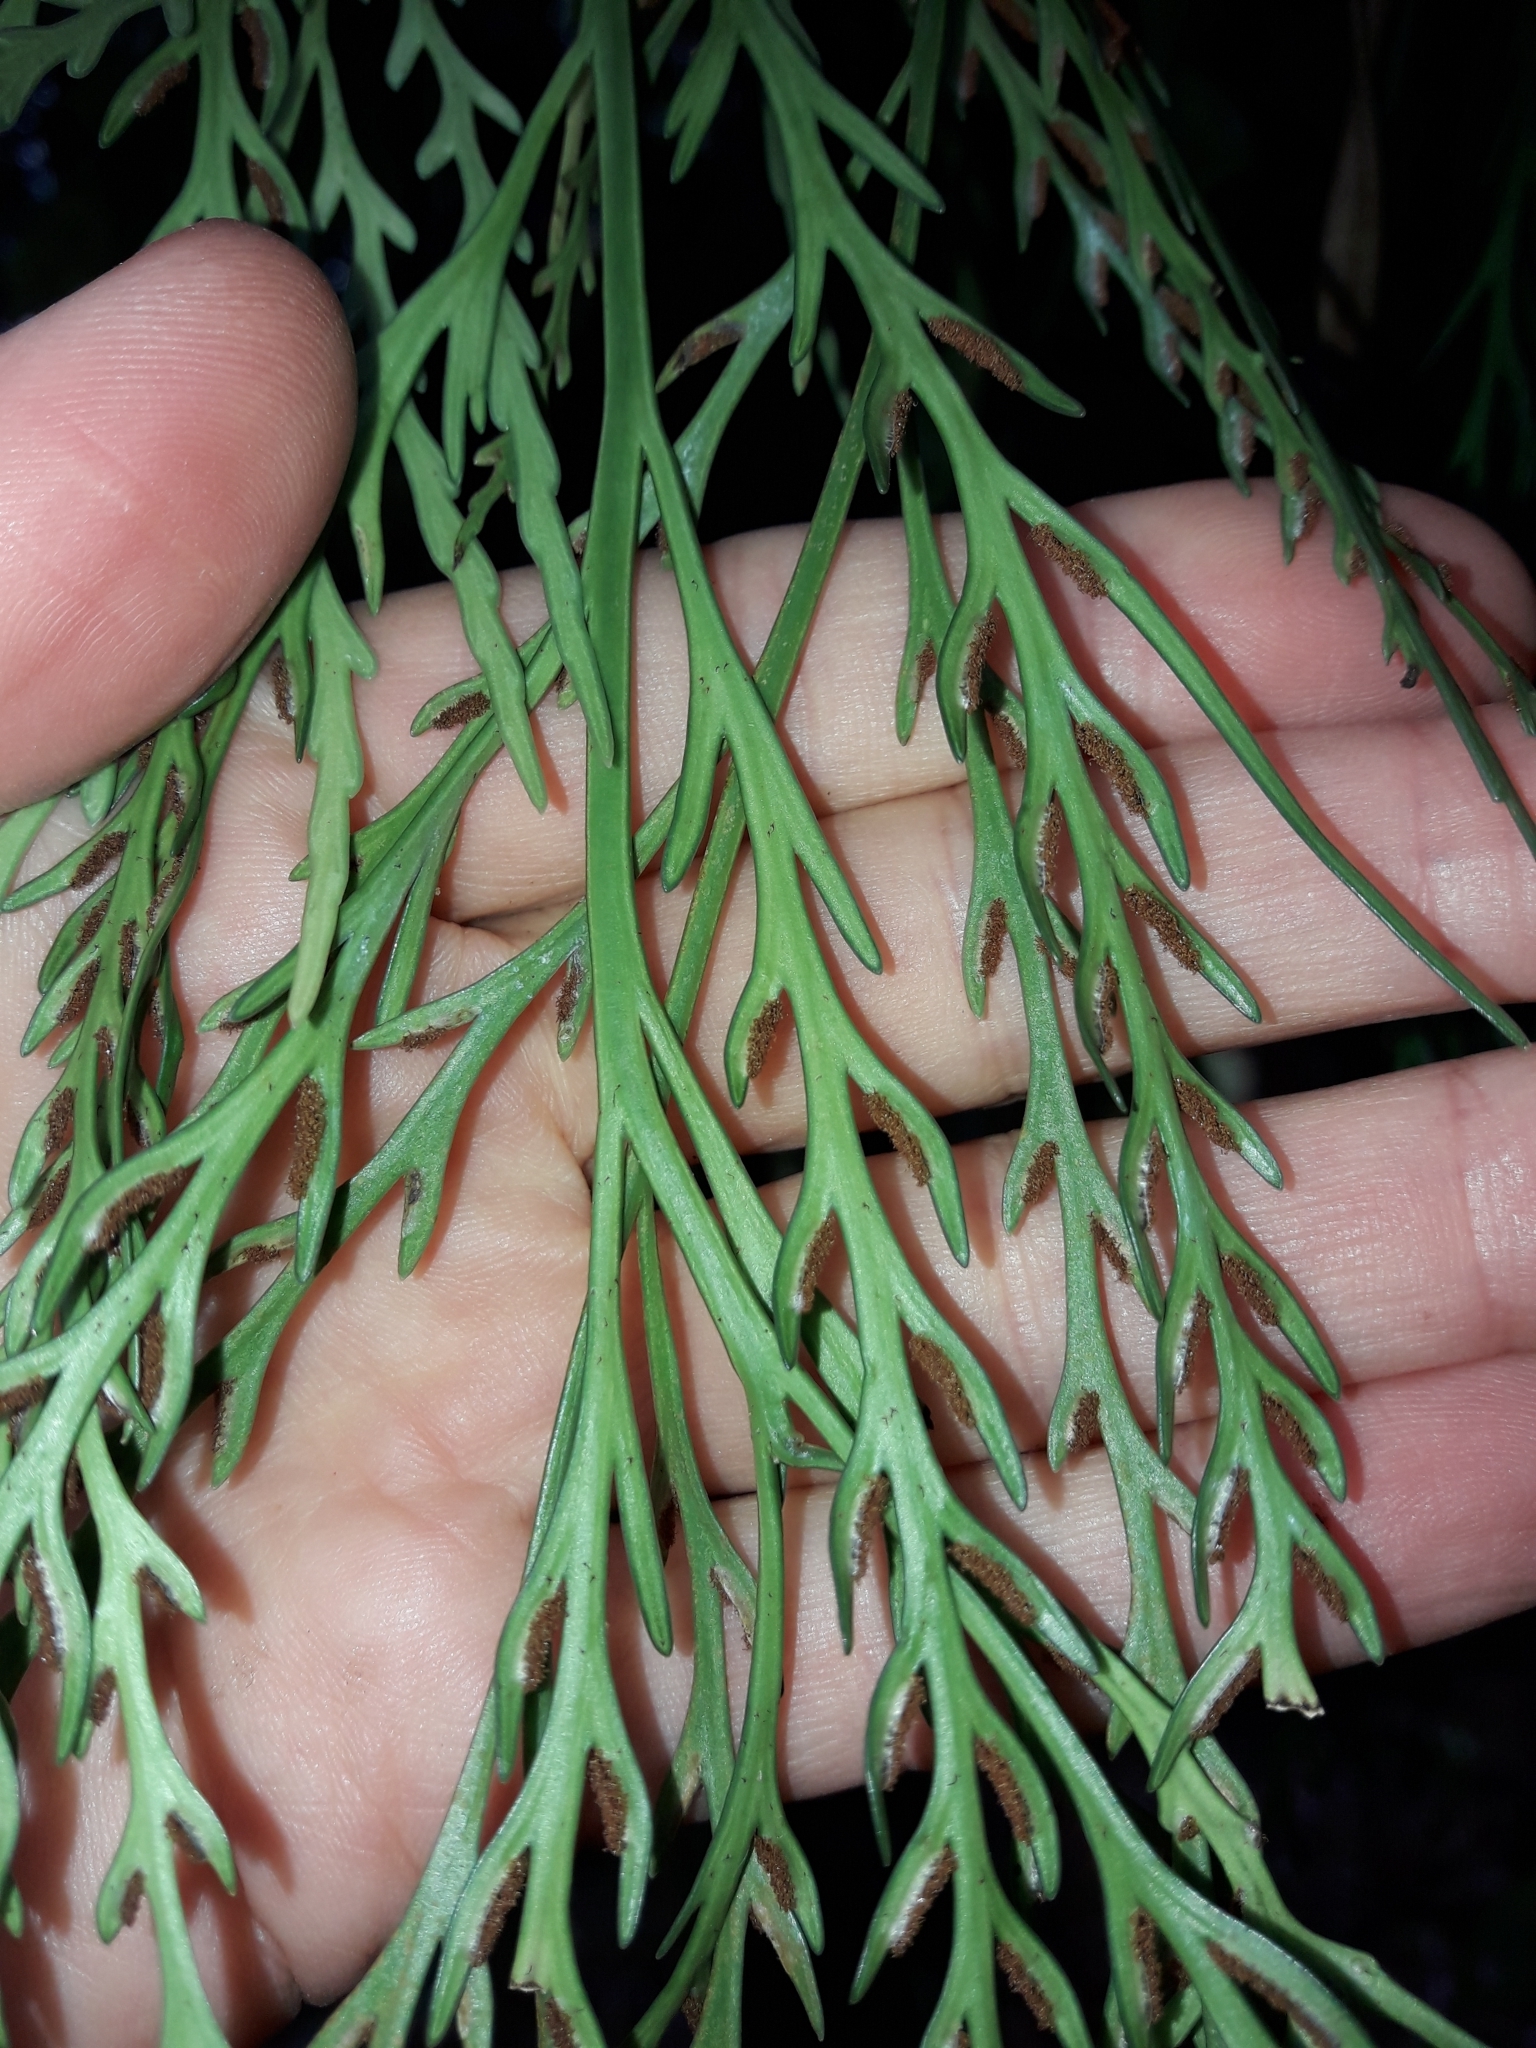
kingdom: Plantae
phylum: Tracheophyta
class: Polypodiopsida
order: Polypodiales
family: Aspleniaceae
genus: Asplenium
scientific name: Asplenium flaccidum
